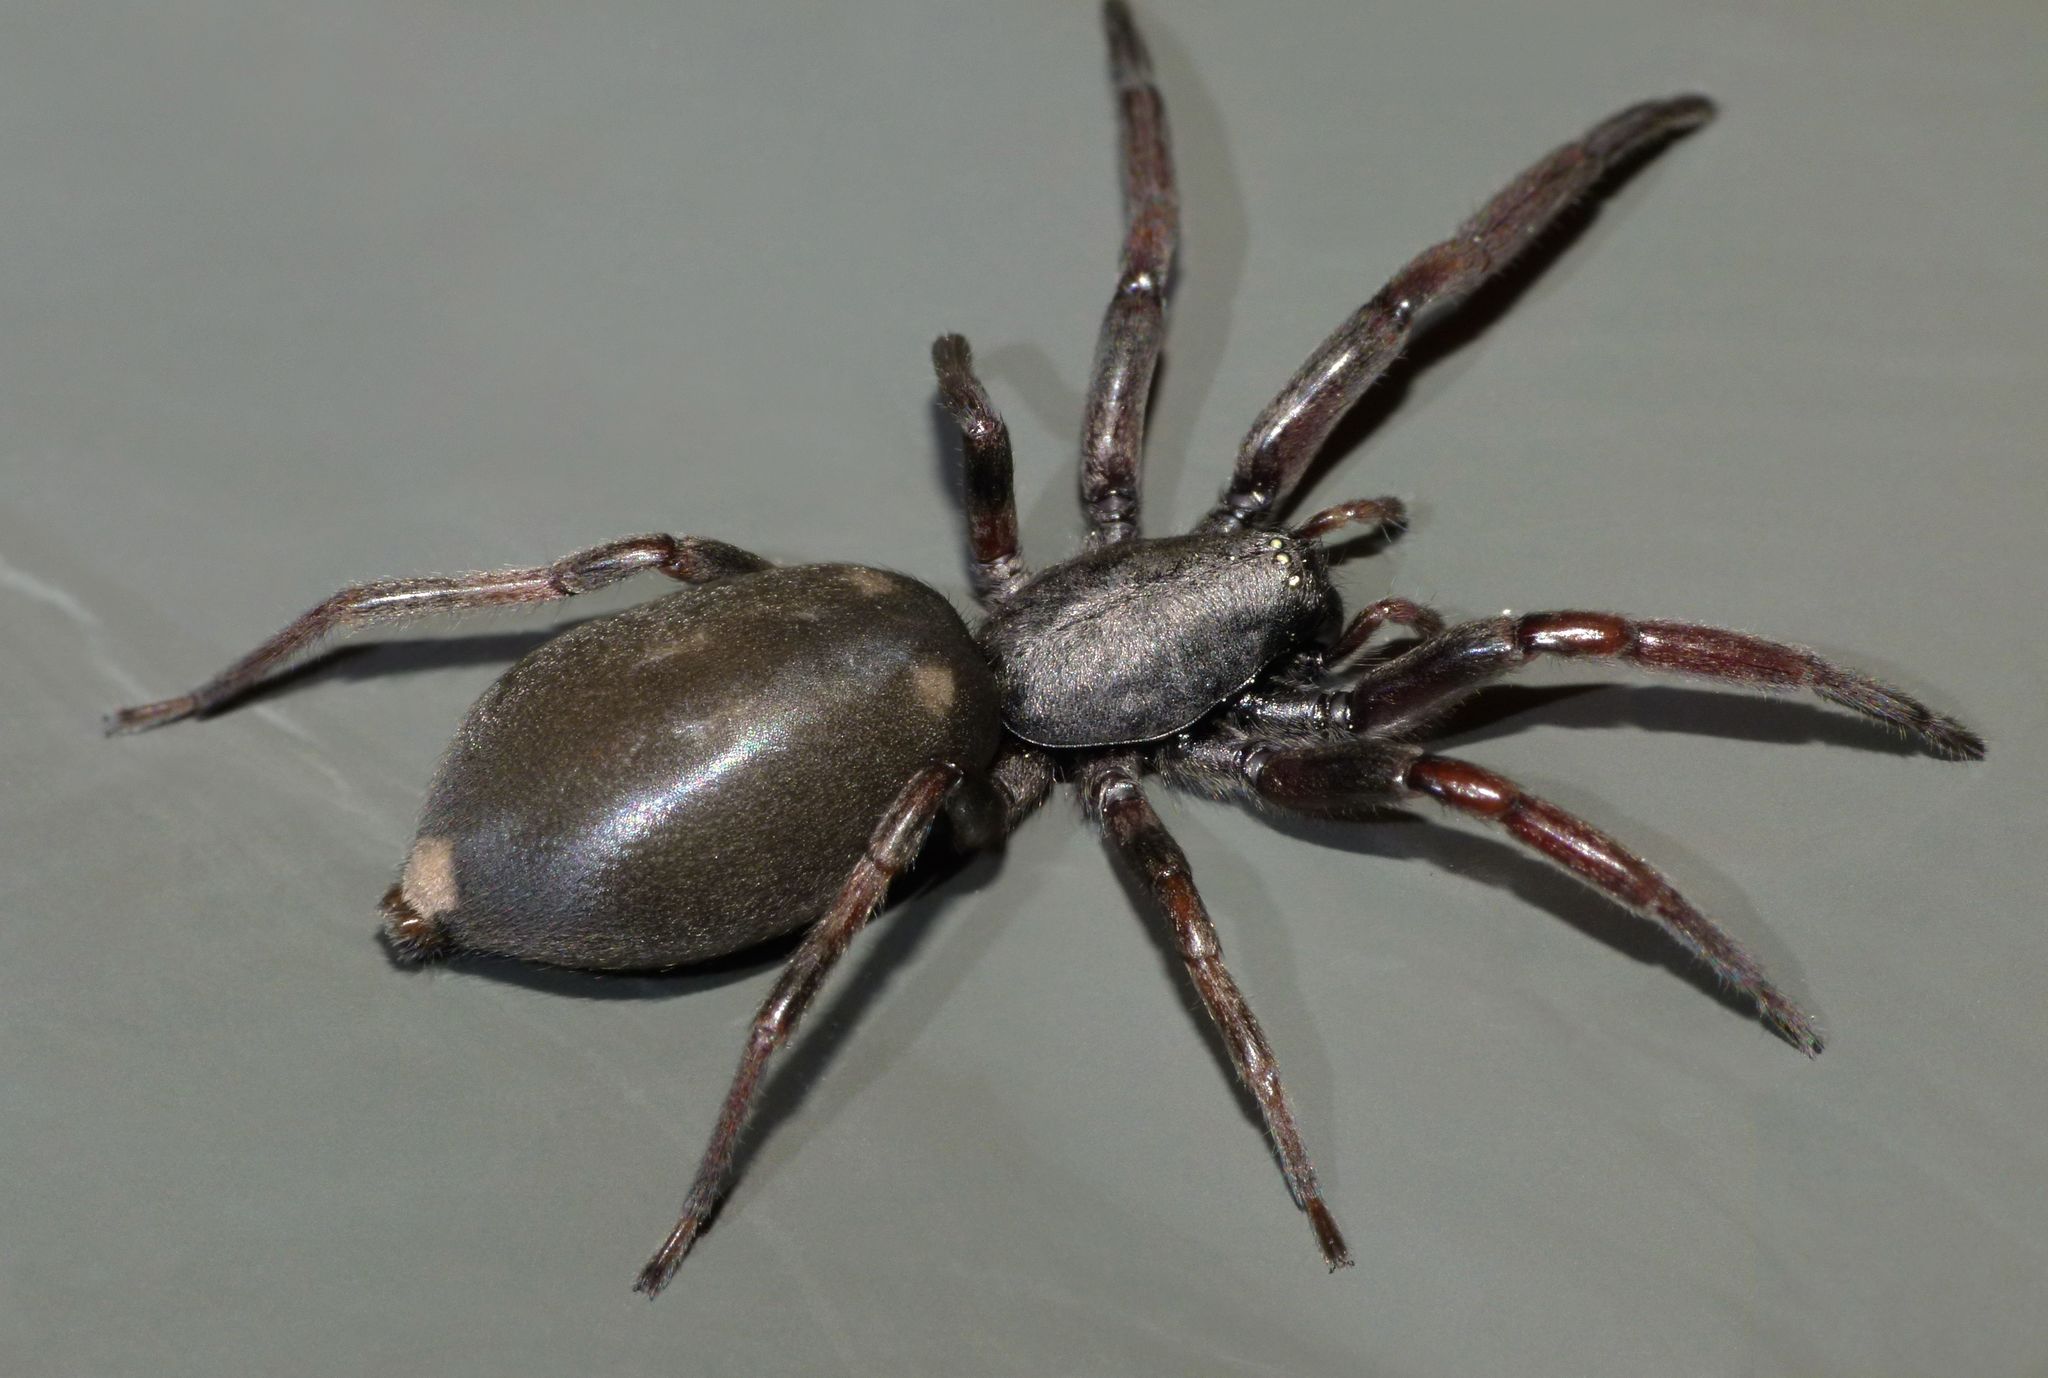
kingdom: Animalia
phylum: Arthropoda
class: Arachnida
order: Araneae
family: Lamponidae
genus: Lampona
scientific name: Lampona cylindrata
